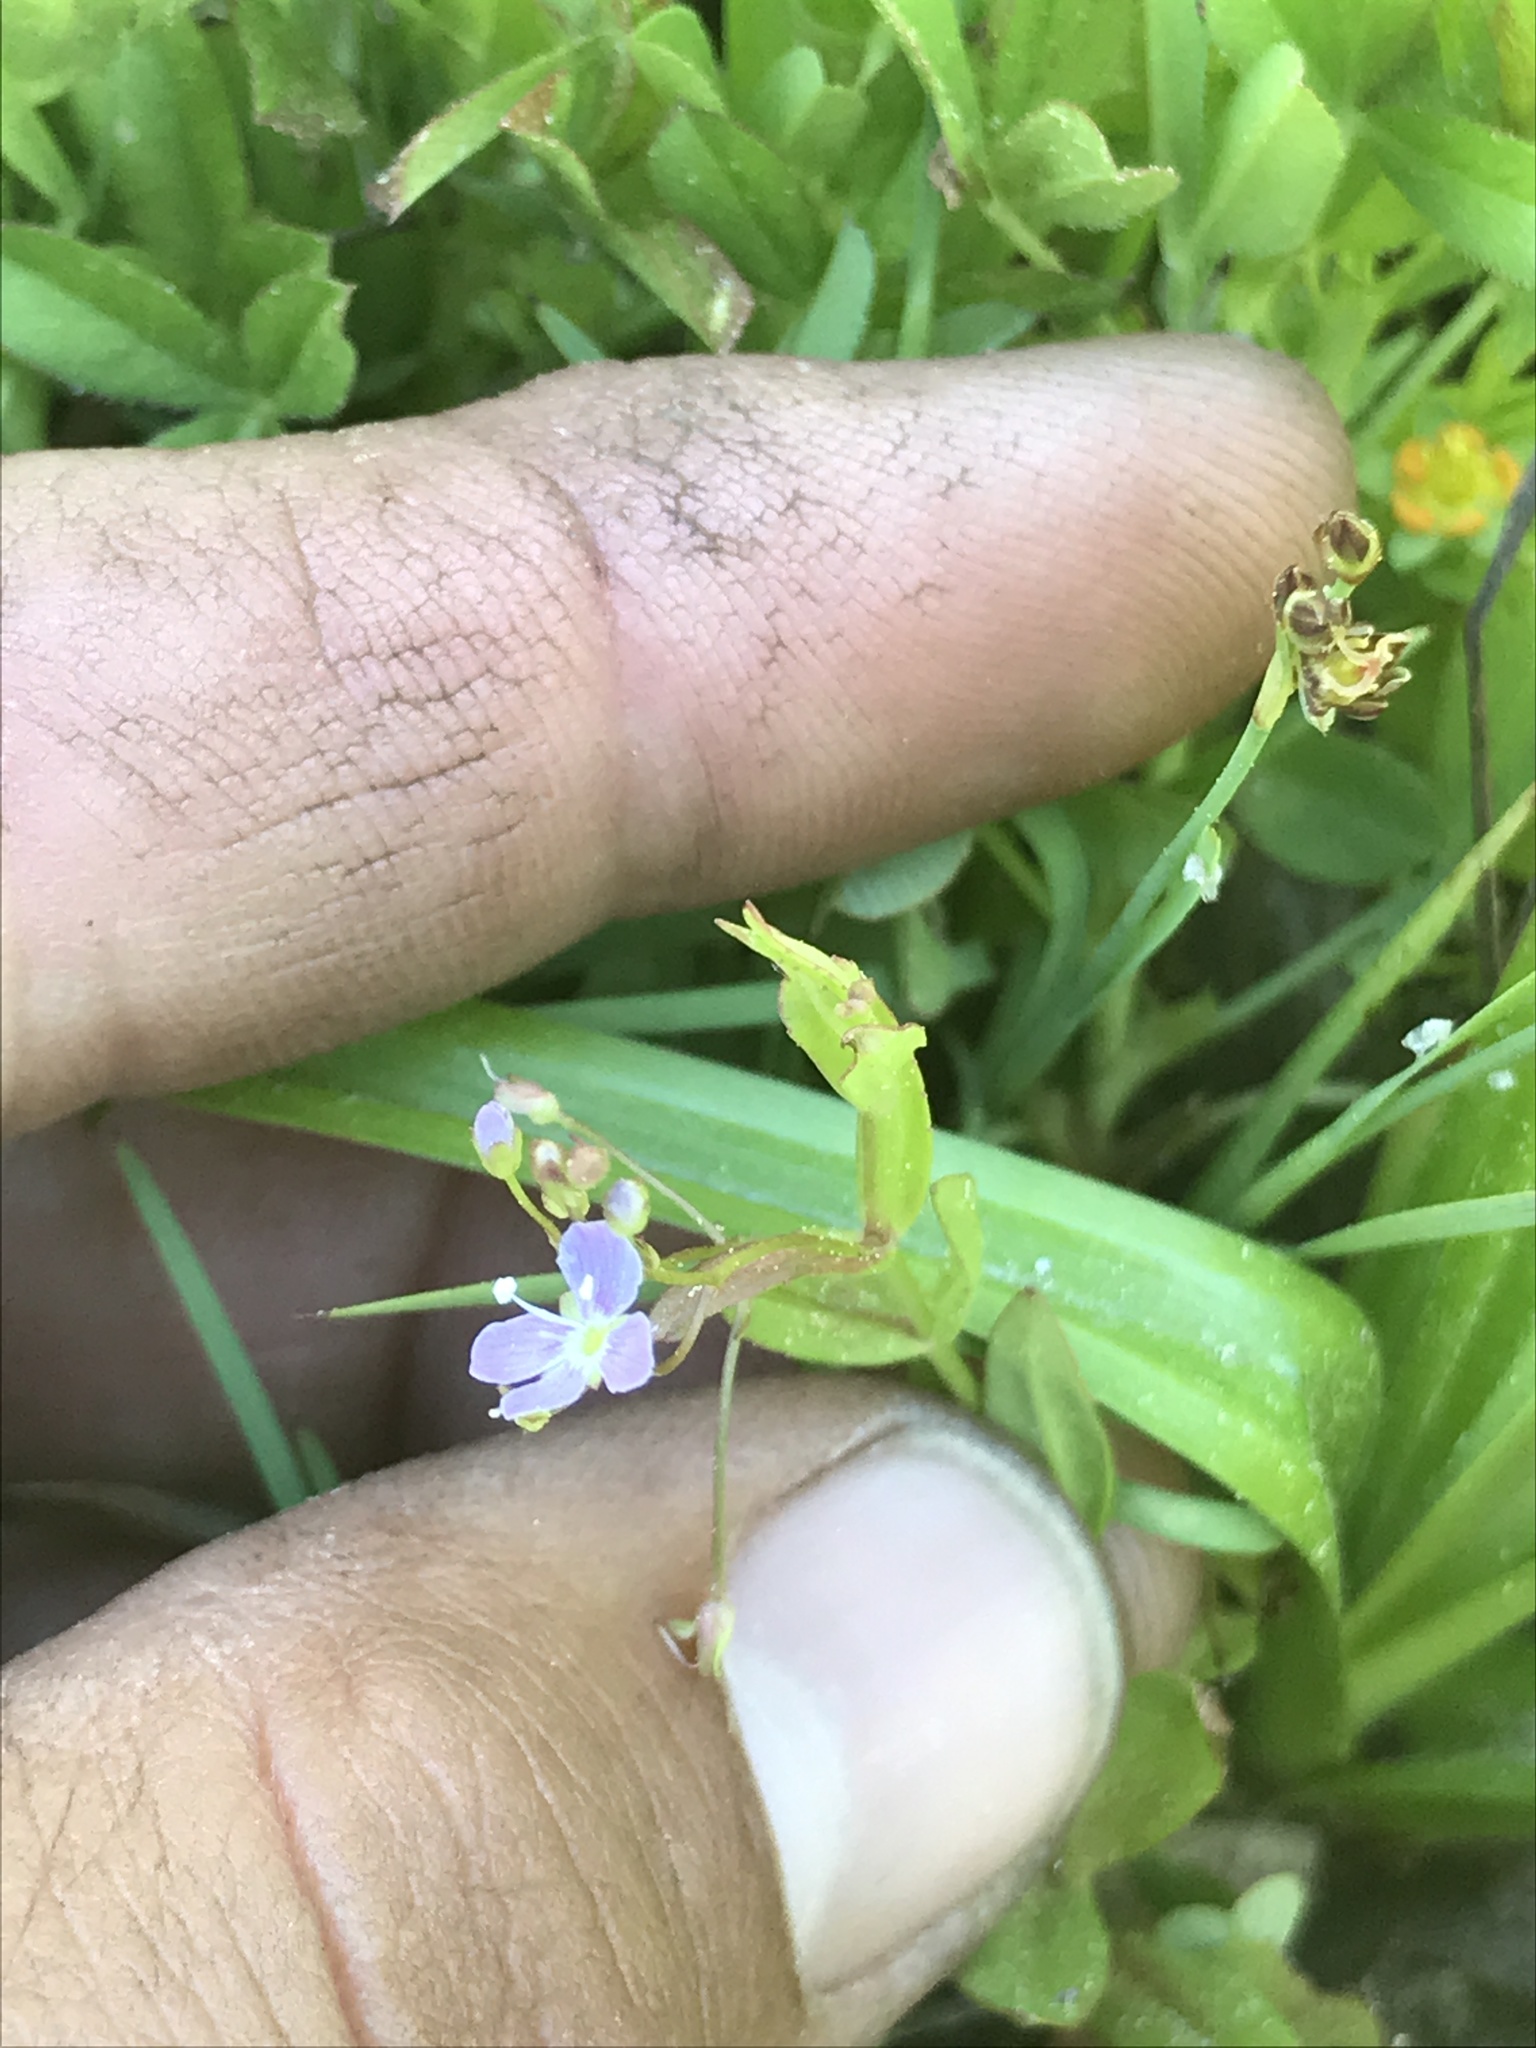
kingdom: Plantae
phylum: Tracheophyta
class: Magnoliopsida
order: Lamiales
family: Plantaginaceae
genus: Veronica
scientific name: Veronica scutellata
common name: Marsh speedwell
